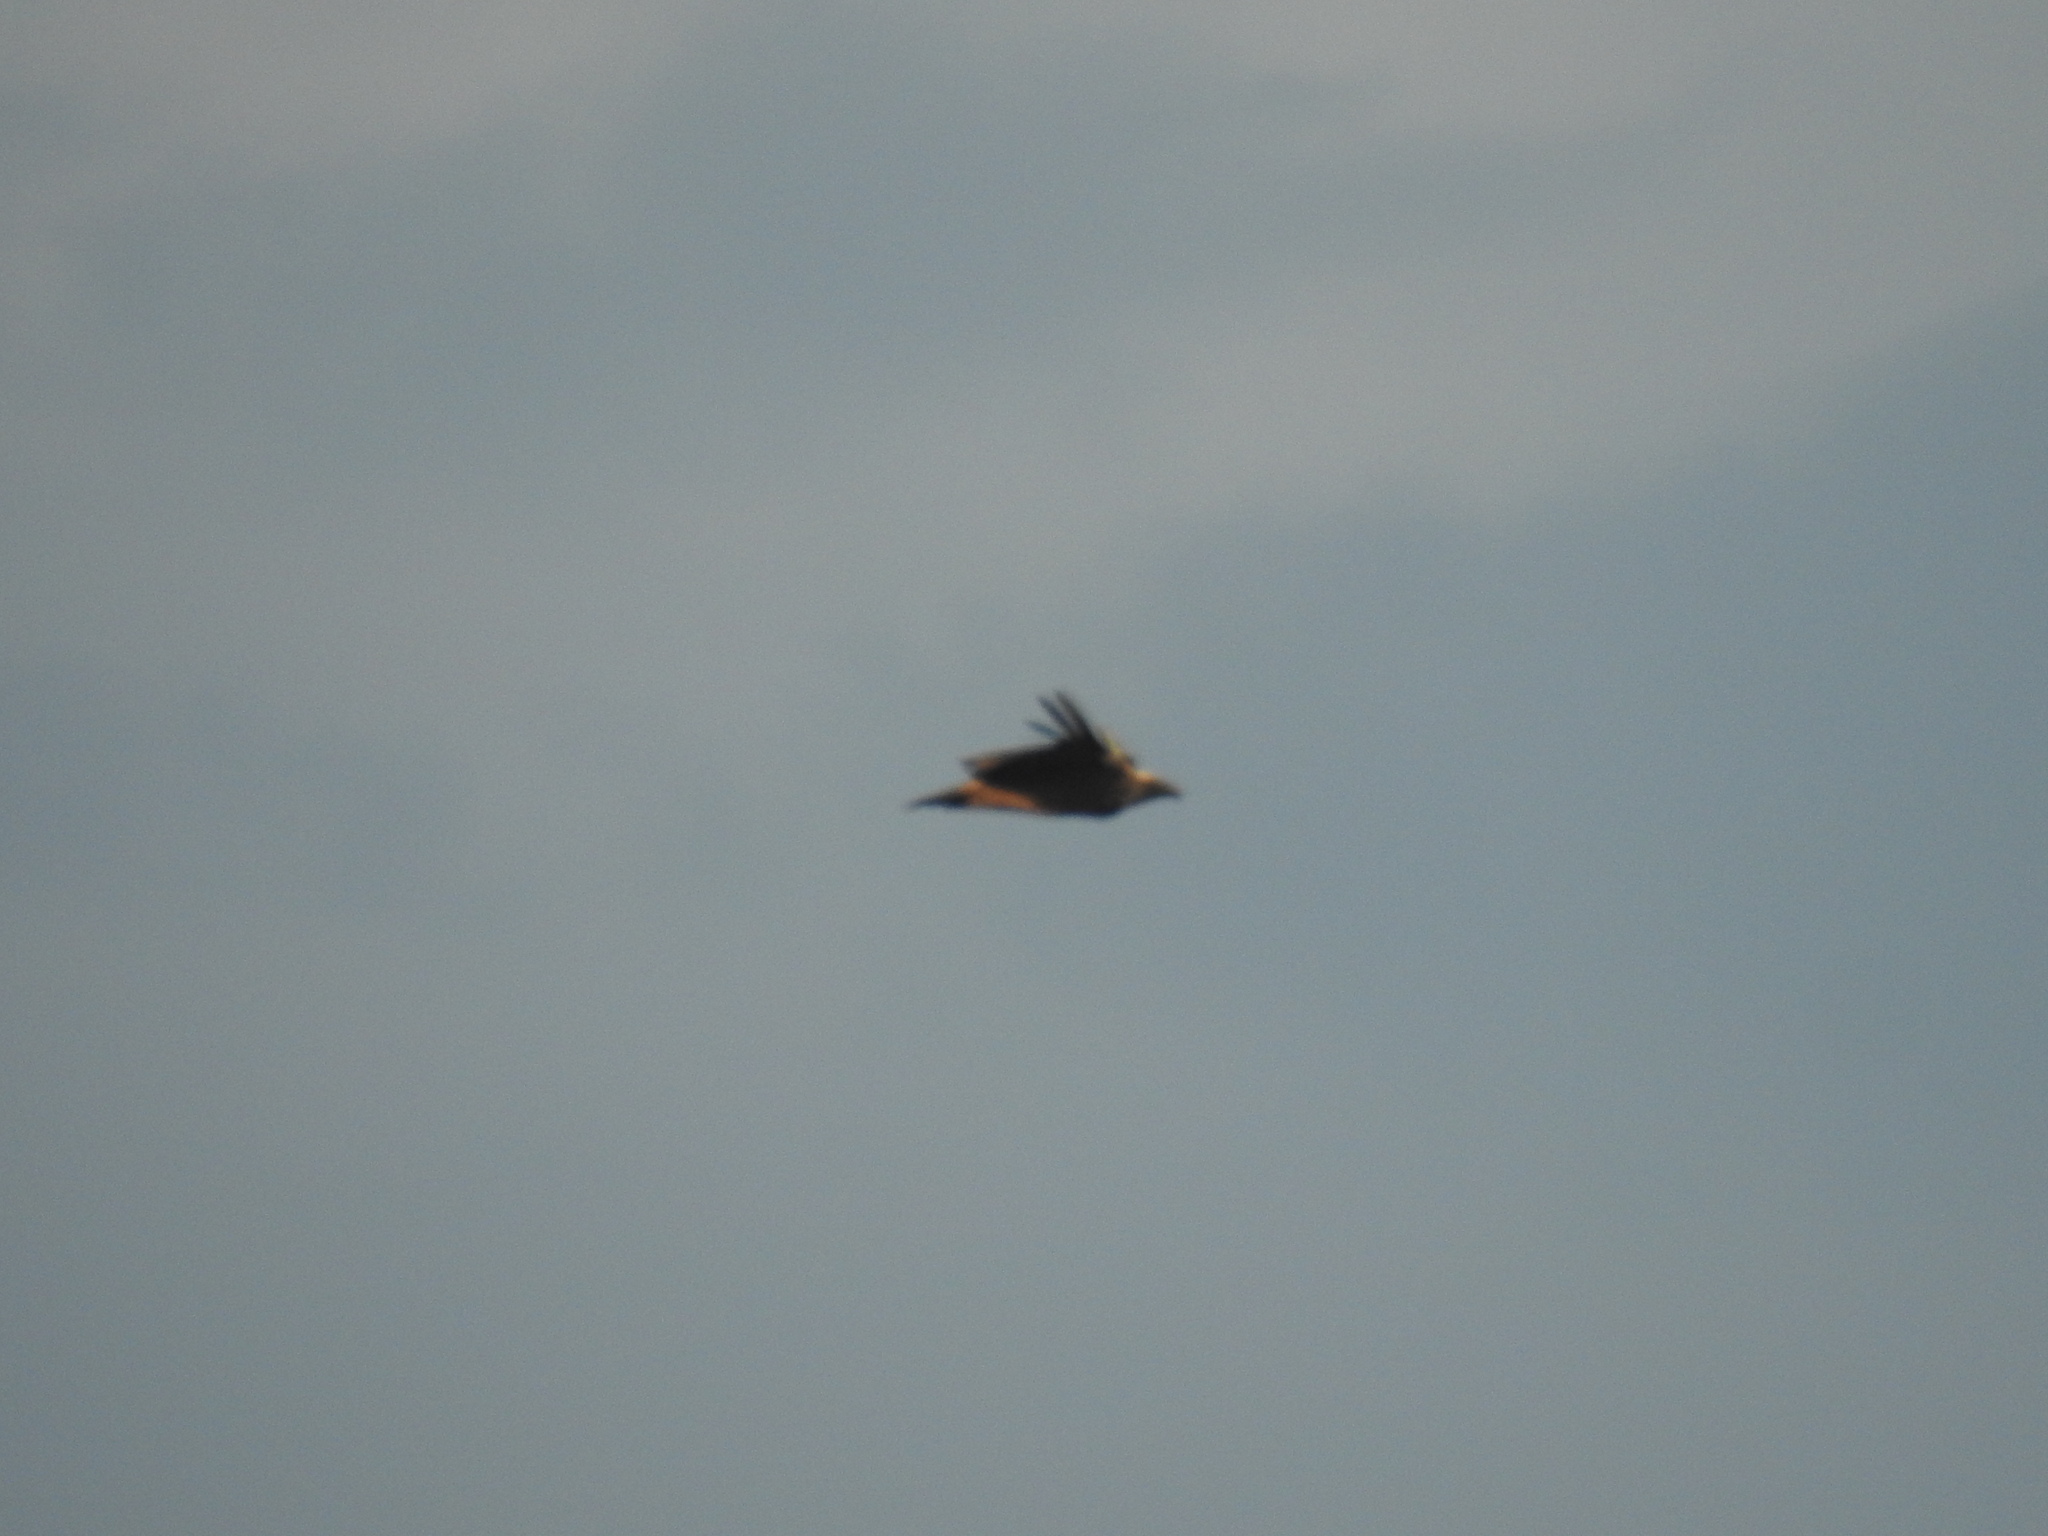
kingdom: Animalia
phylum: Chordata
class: Aves
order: Accipitriformes
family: Accipitridae
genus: Gyps
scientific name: Gyps fulvus
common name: Griffon vulture
